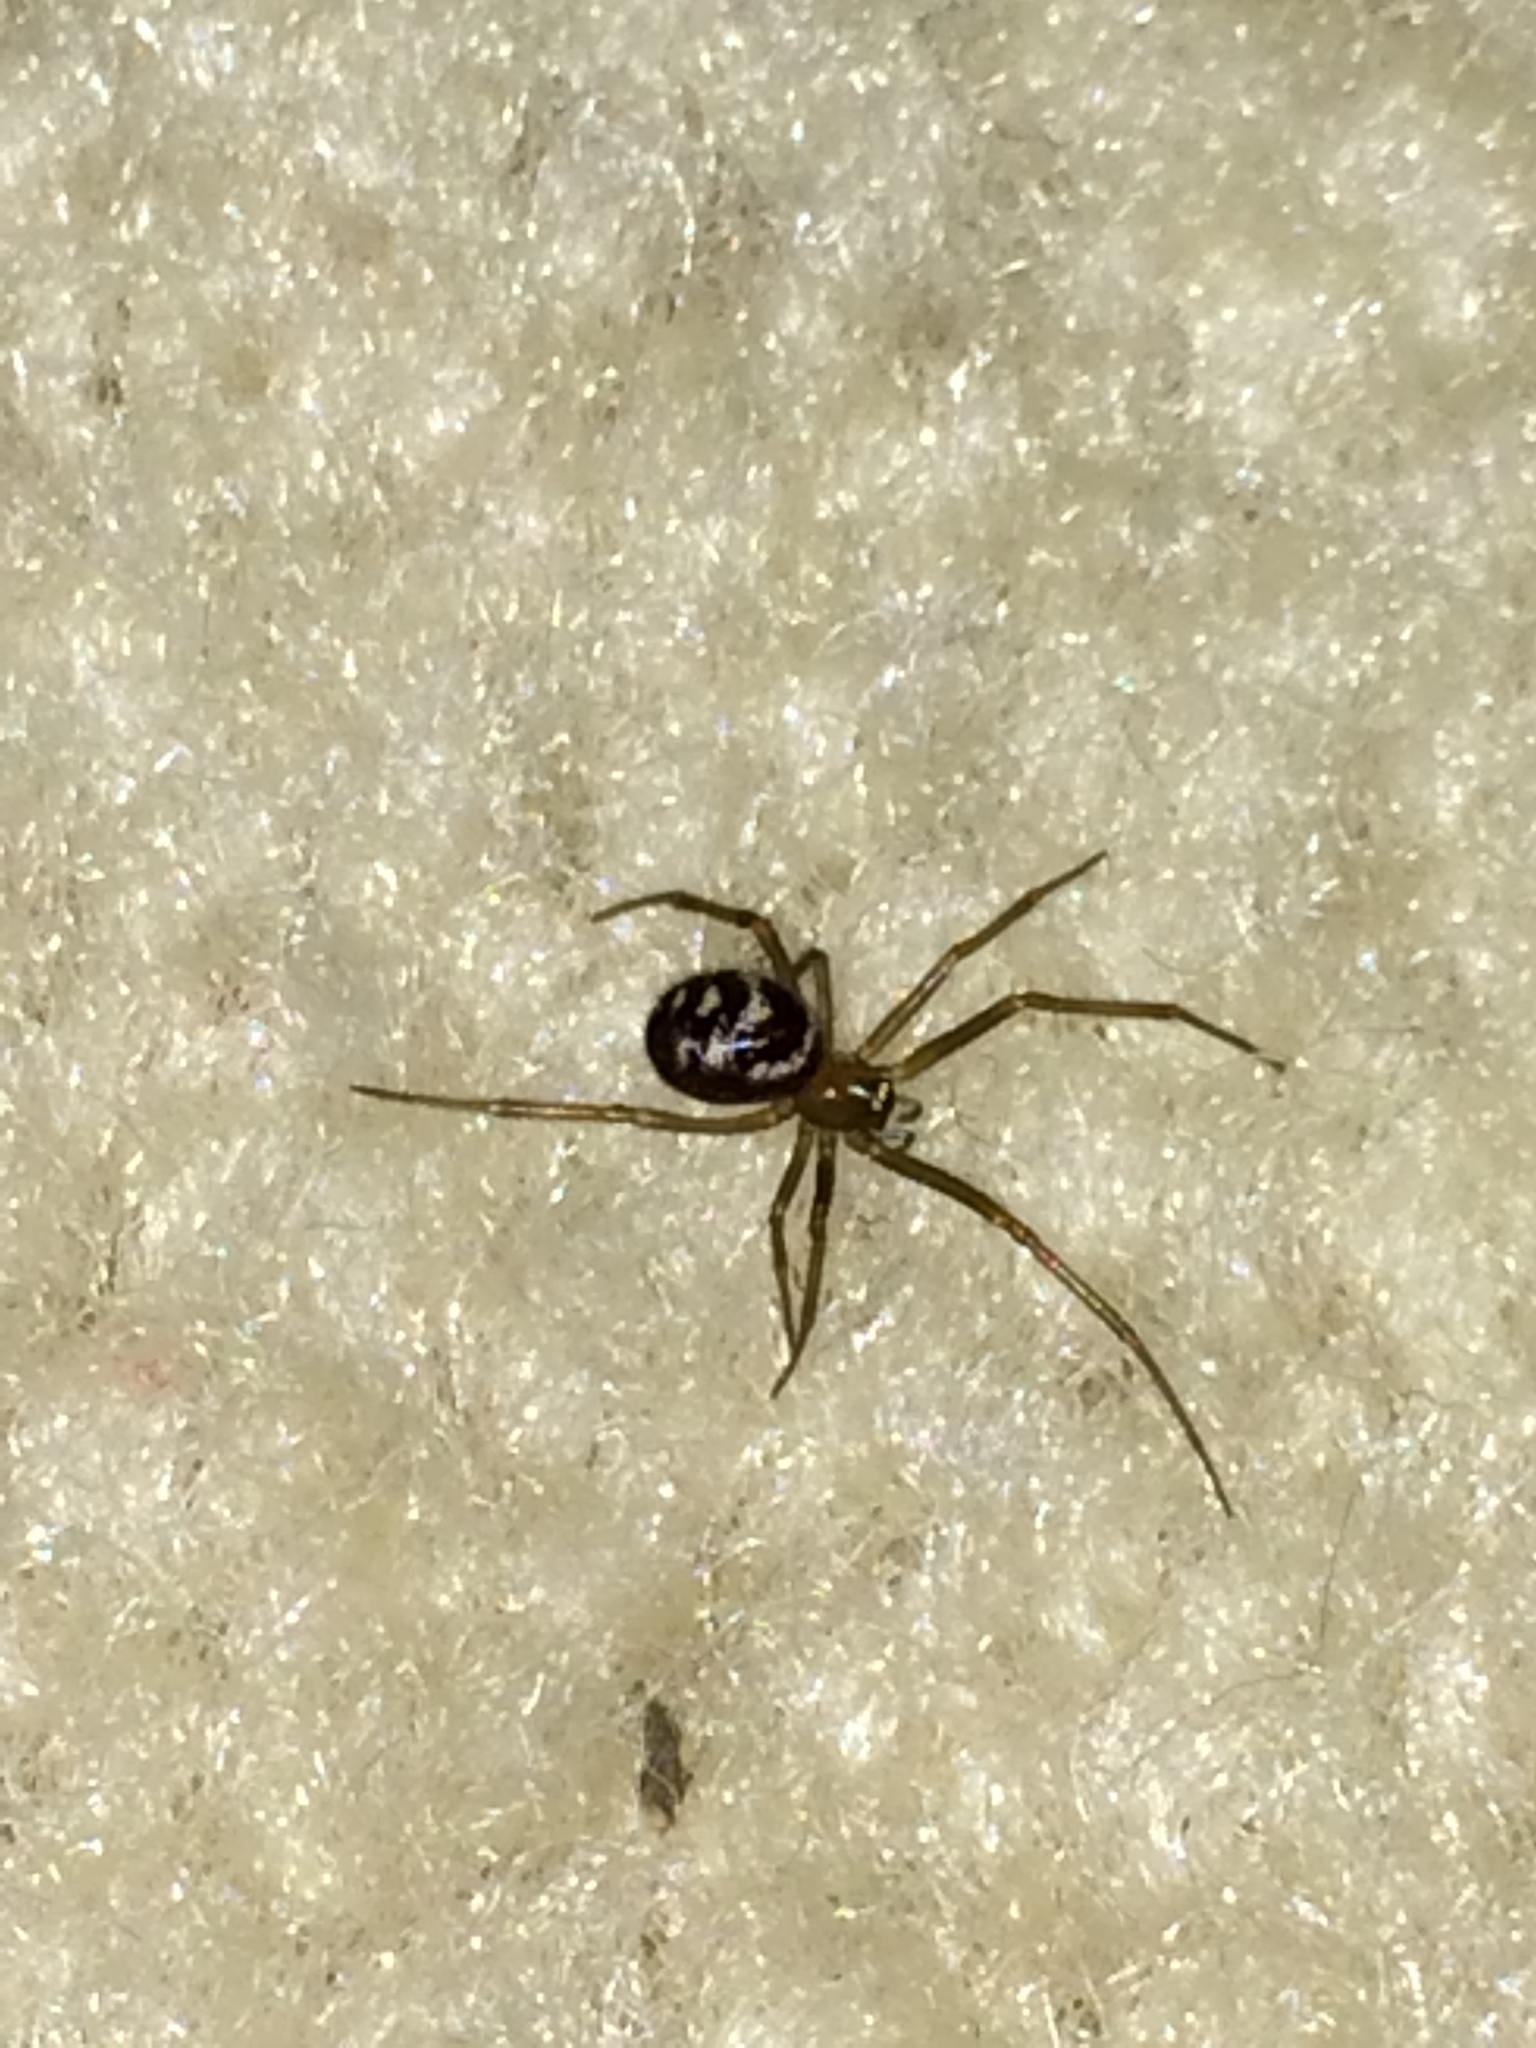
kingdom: Animalia
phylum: Arthropoda
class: Arachnida
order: Araneae
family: Theridiidae
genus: Steatoda
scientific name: Steatoda grossa
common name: False black widow
